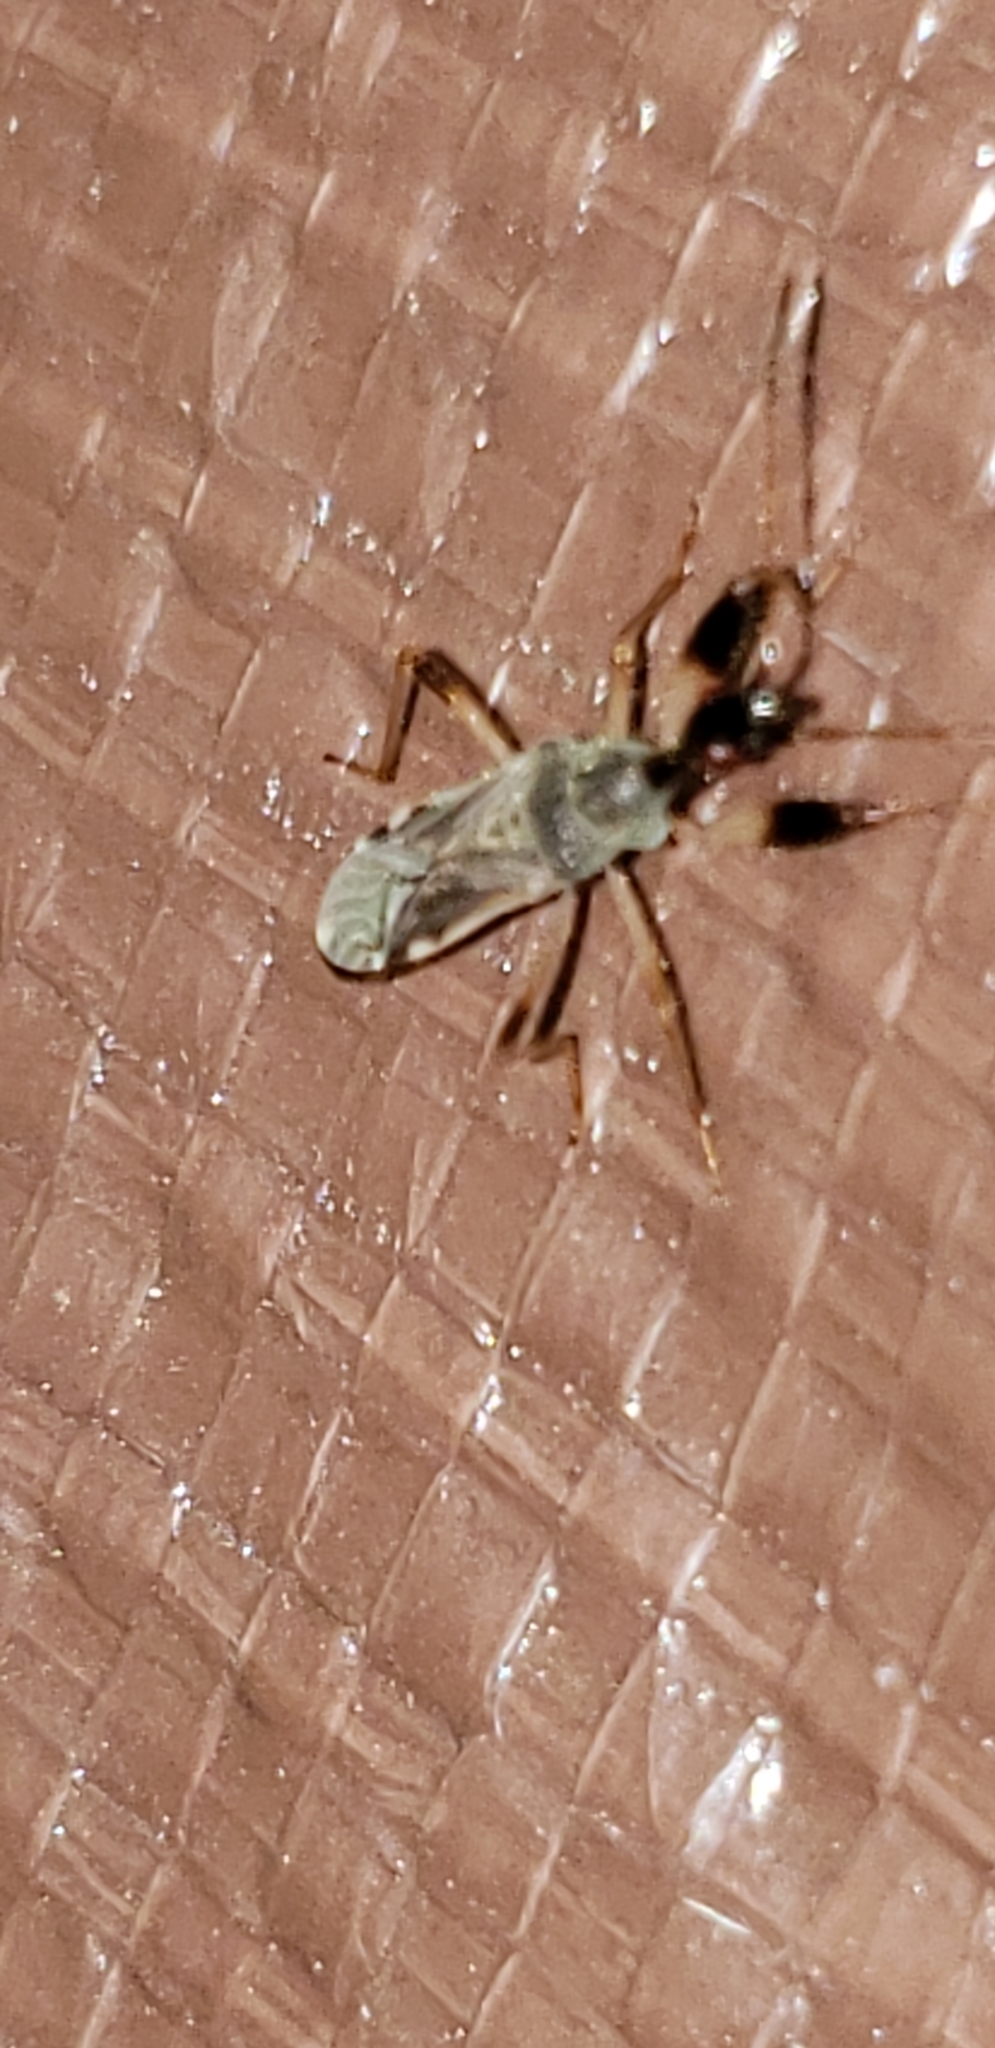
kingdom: Animalia
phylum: Arthropoda
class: Insecta
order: Hemiptera
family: Rhyparochromidae
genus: Myodocha
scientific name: Myodocha serripes
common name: Long-necked seed bug
